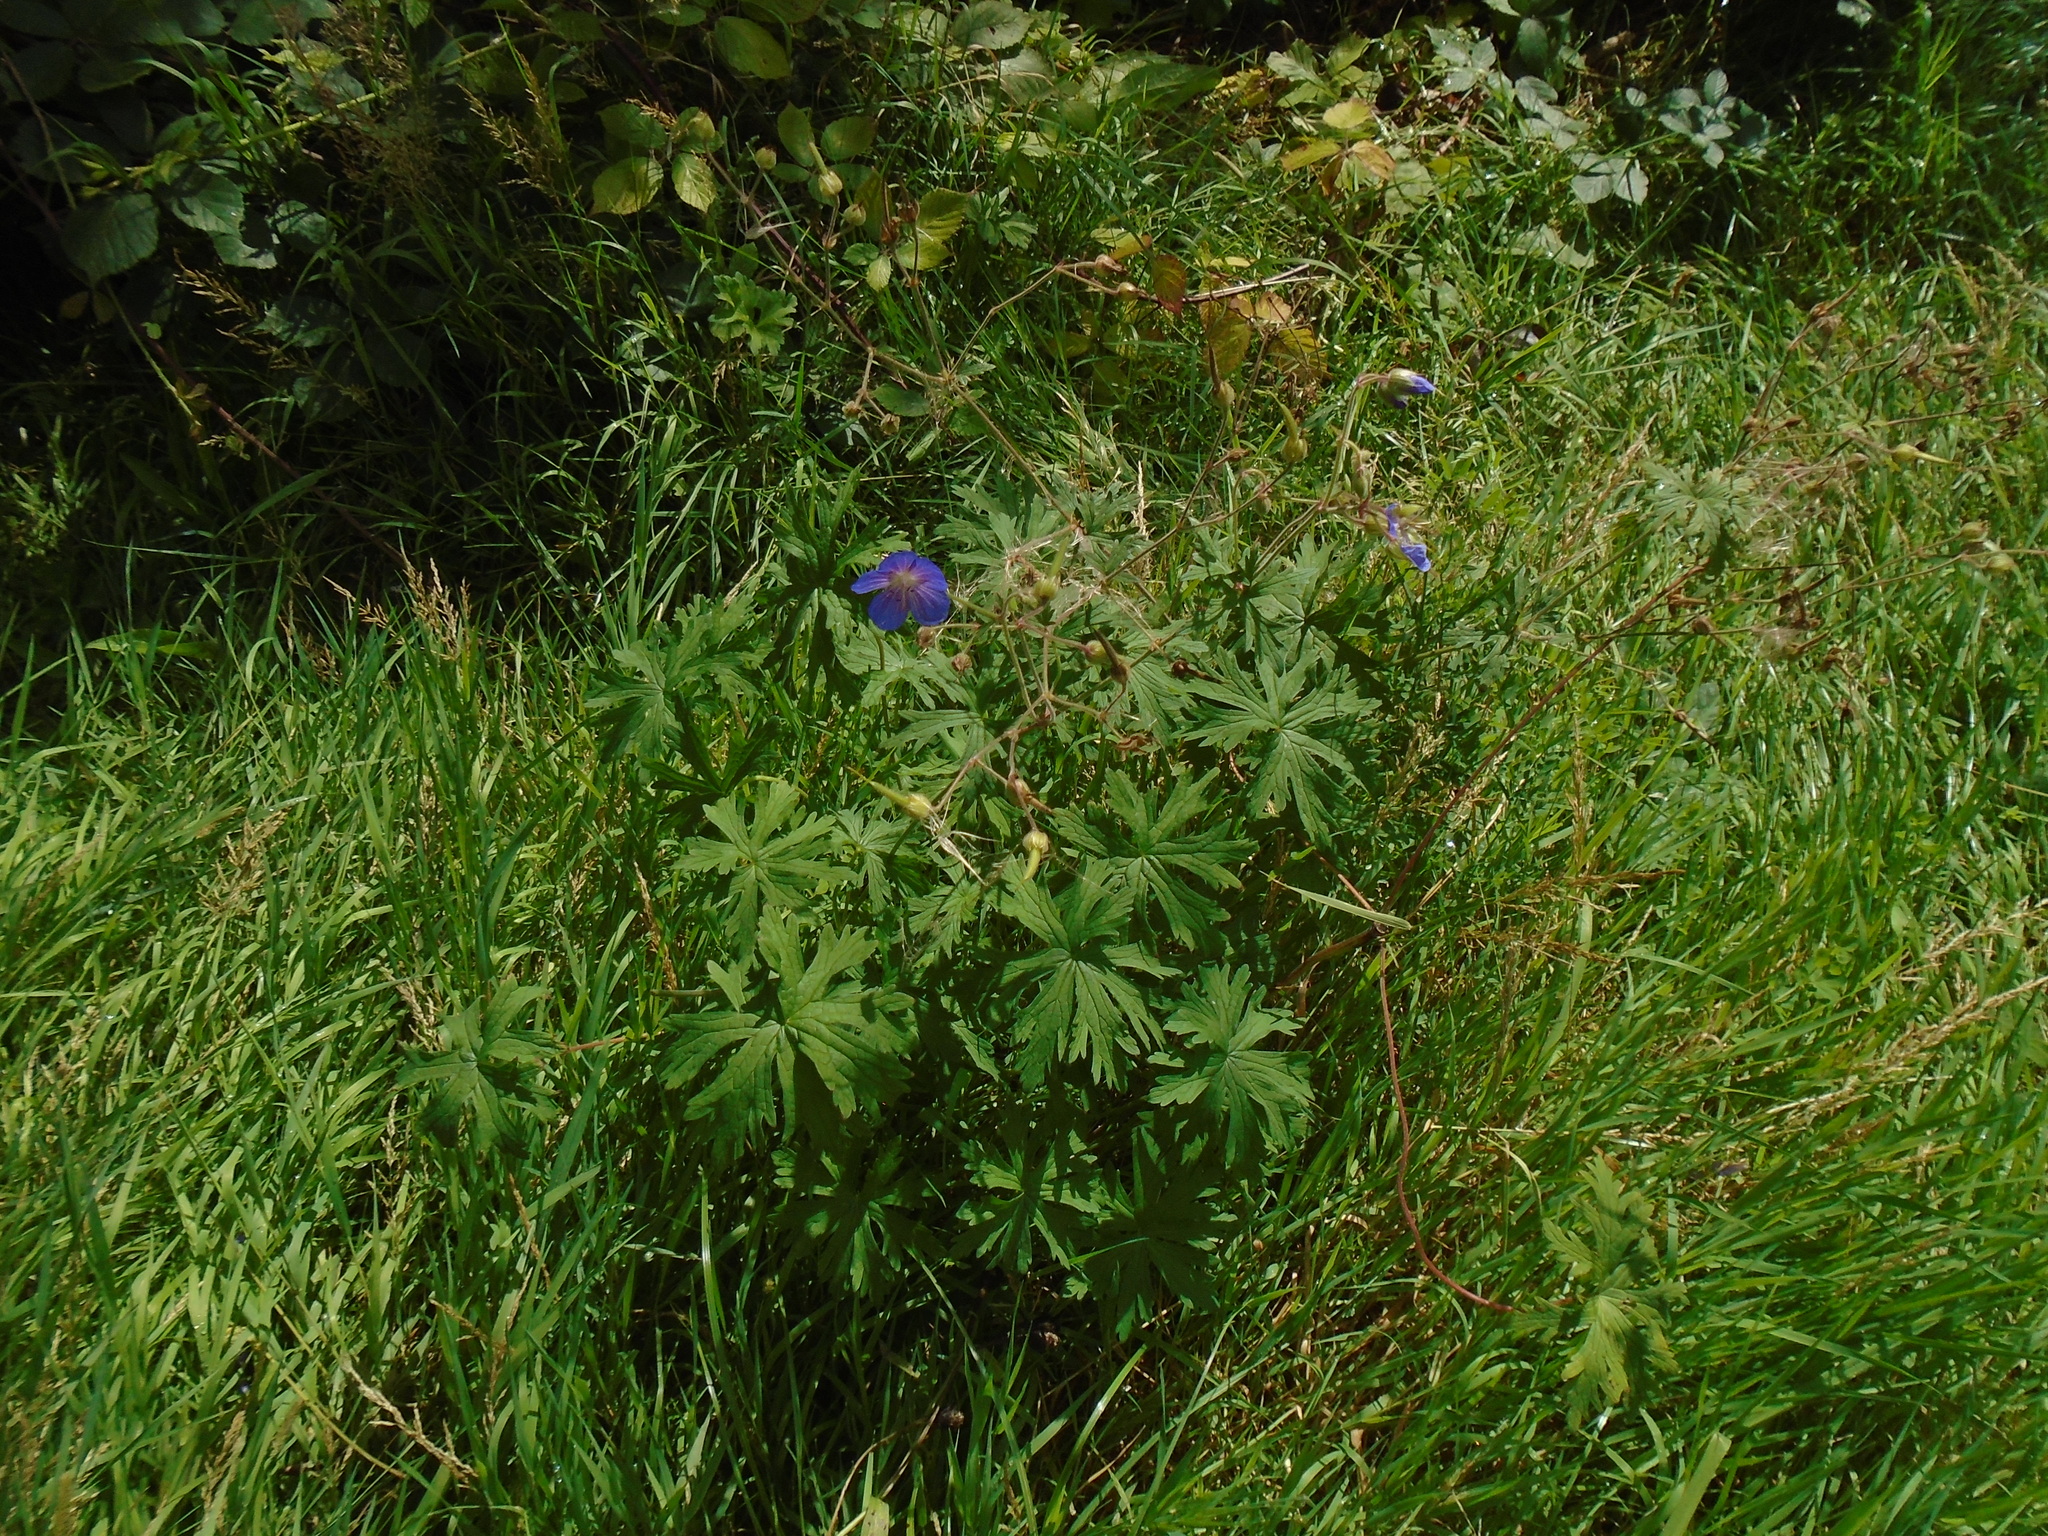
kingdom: Plantae
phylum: Tracheophyta
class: Magnoliopsida
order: Geraniales
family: Geraniaceae
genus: Geranium
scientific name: Geranium pratense
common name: Meadow crane's-bill
